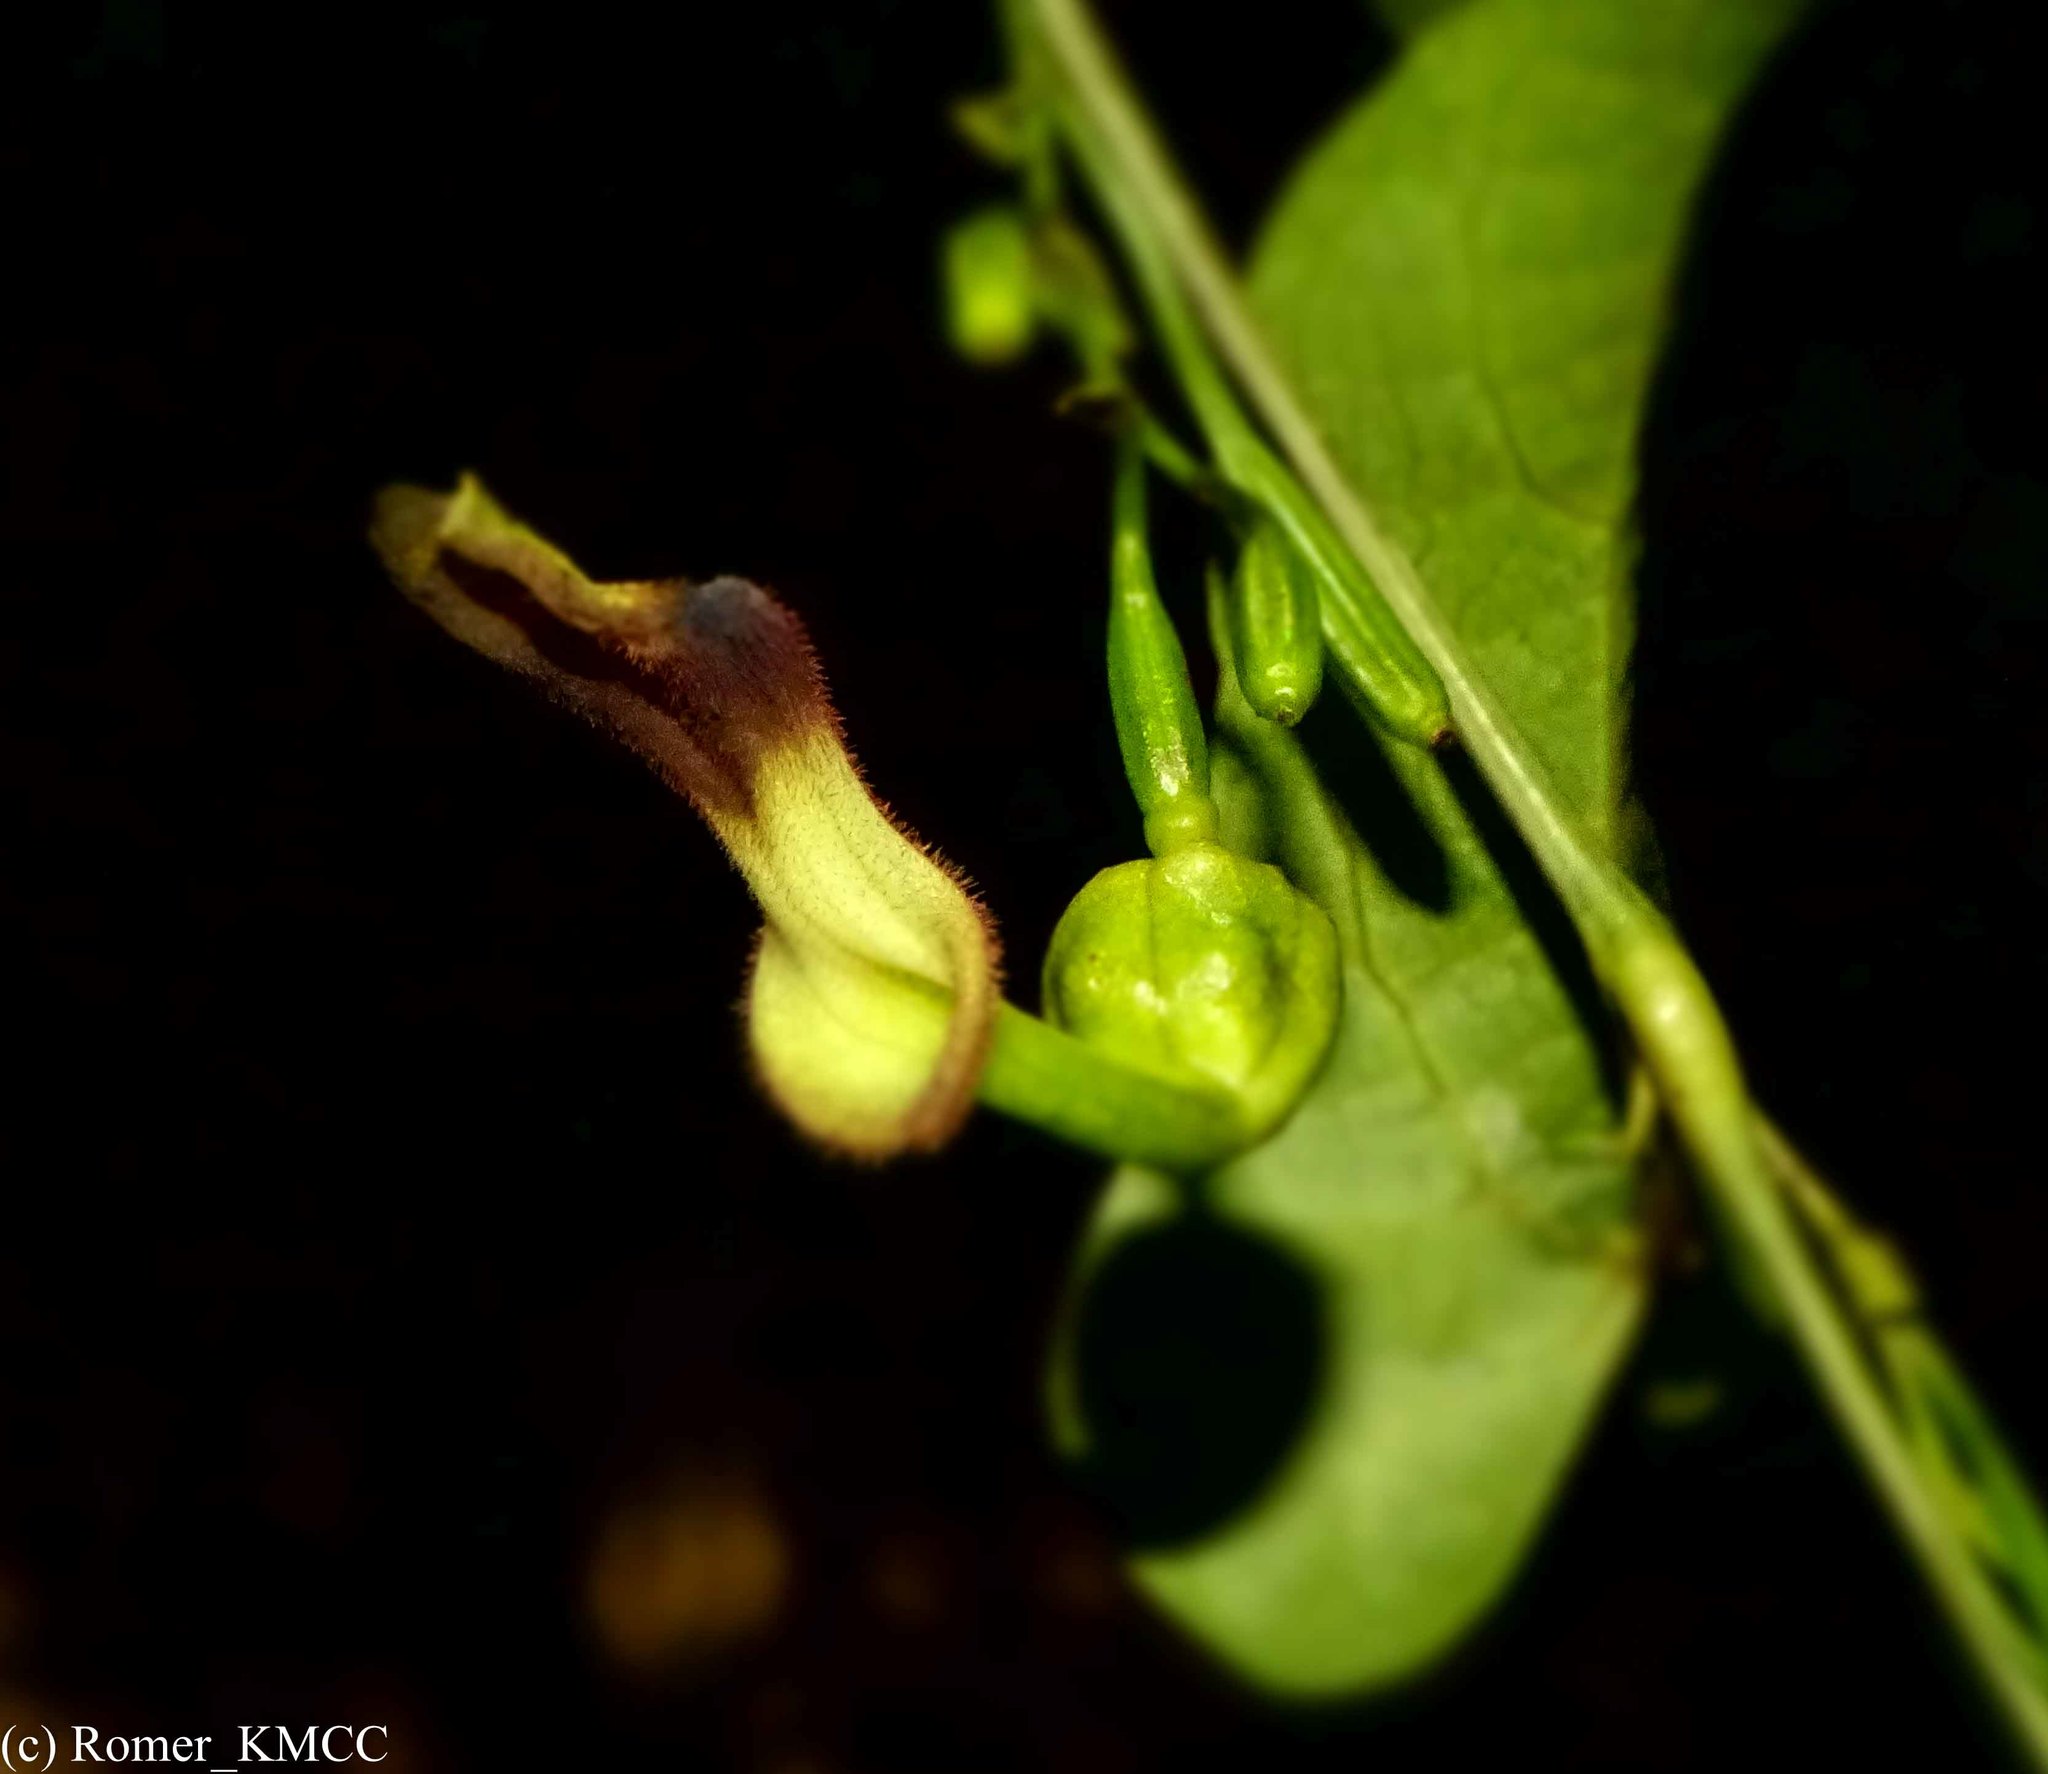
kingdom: Plantae
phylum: Tracheophyta
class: Magnoliopsida
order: Piperales
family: Aristolochiaceae
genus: Aristolochia
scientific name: Aristolochia albida
